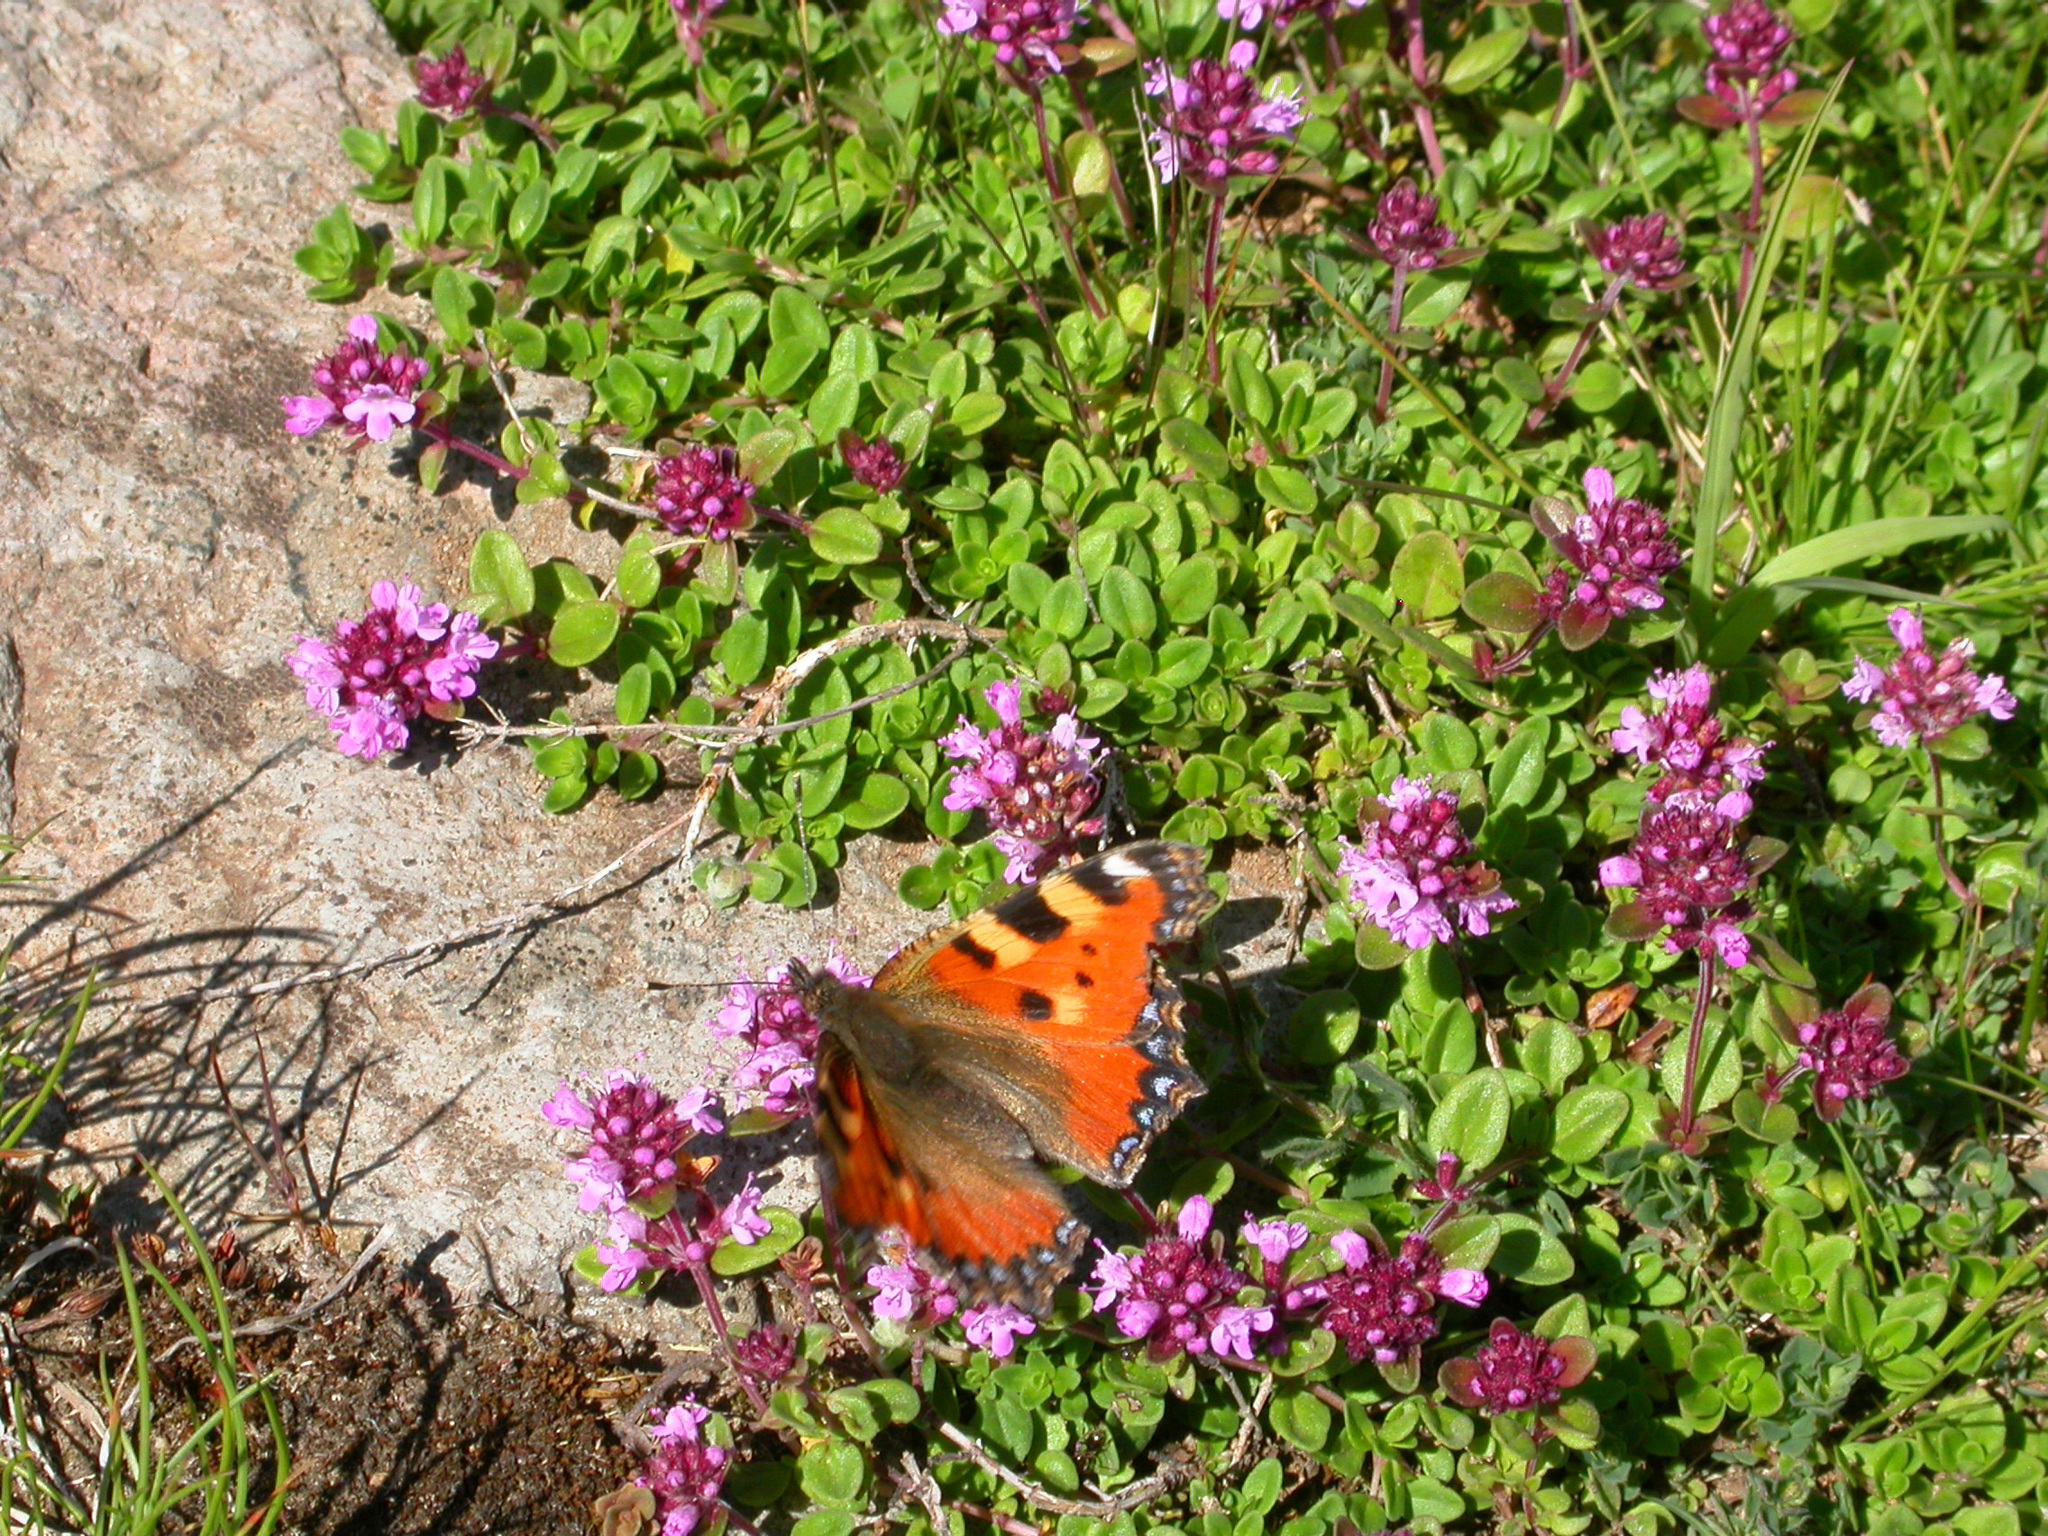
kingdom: Animalia
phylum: Arthropoda
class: Insecta
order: Lepidoptera
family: Nymphalidae
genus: Aglais
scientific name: Aglais urticae
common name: Small tortoiseshell
